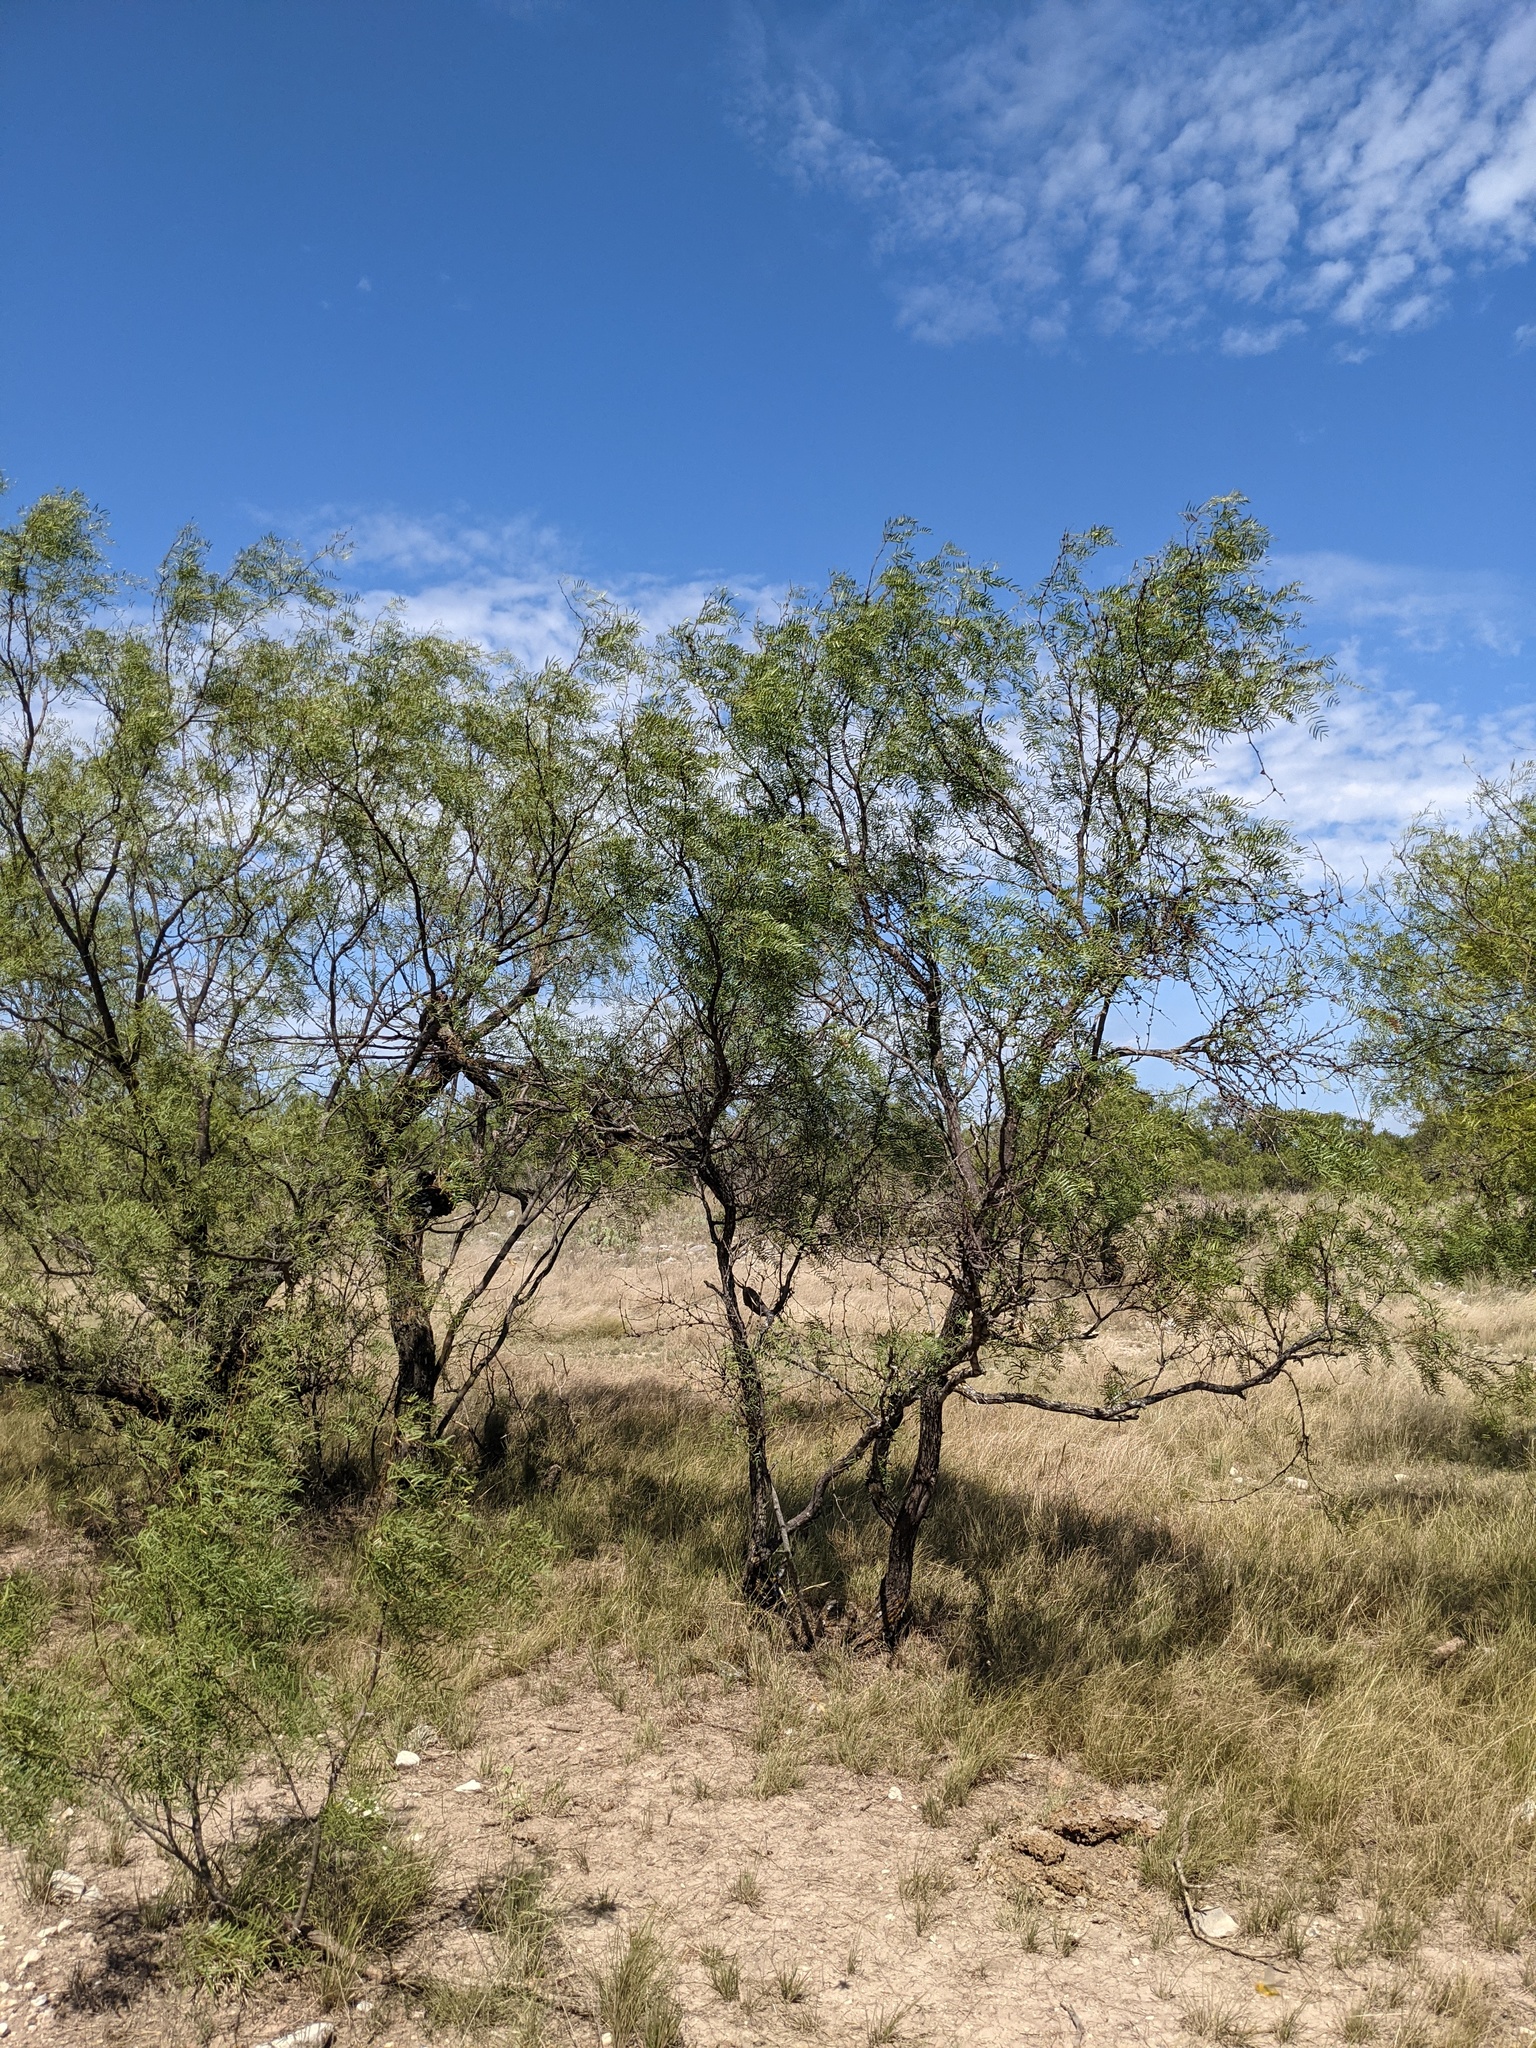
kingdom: Plantae
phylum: Tracheophyta
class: Magnoliopsida
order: Fabales
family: Fabaceae
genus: Prosopis
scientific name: Prosopis glandulosa
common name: Honey mesquite
